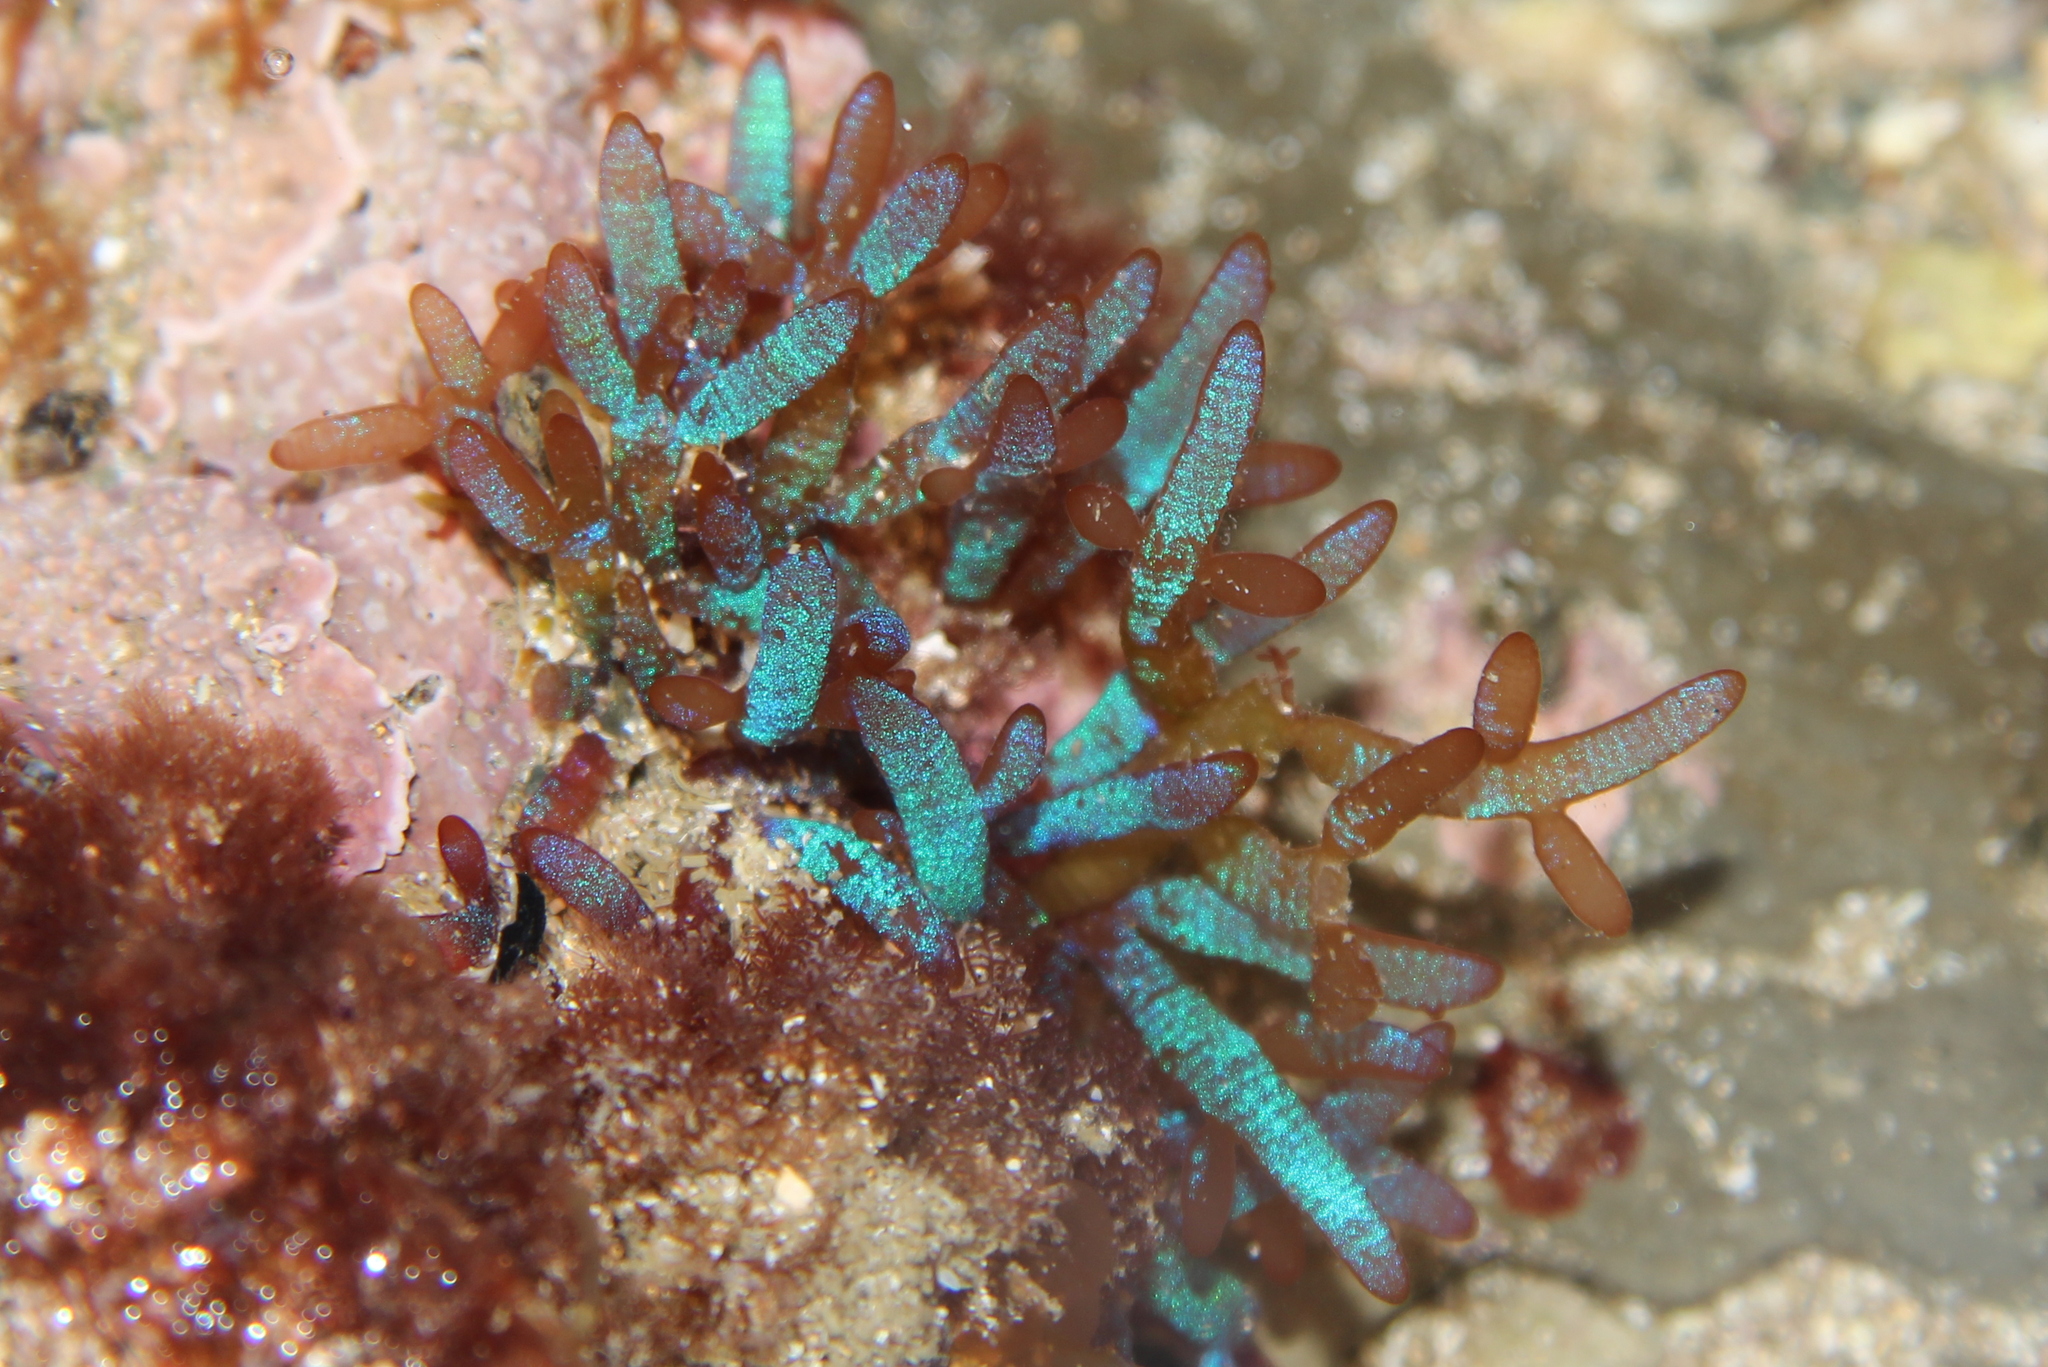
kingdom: Plantae
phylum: Rhodophyta
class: Florideophyceae
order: Rhodymeniales
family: Champiaceae
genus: Champia
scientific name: Champia laingii
